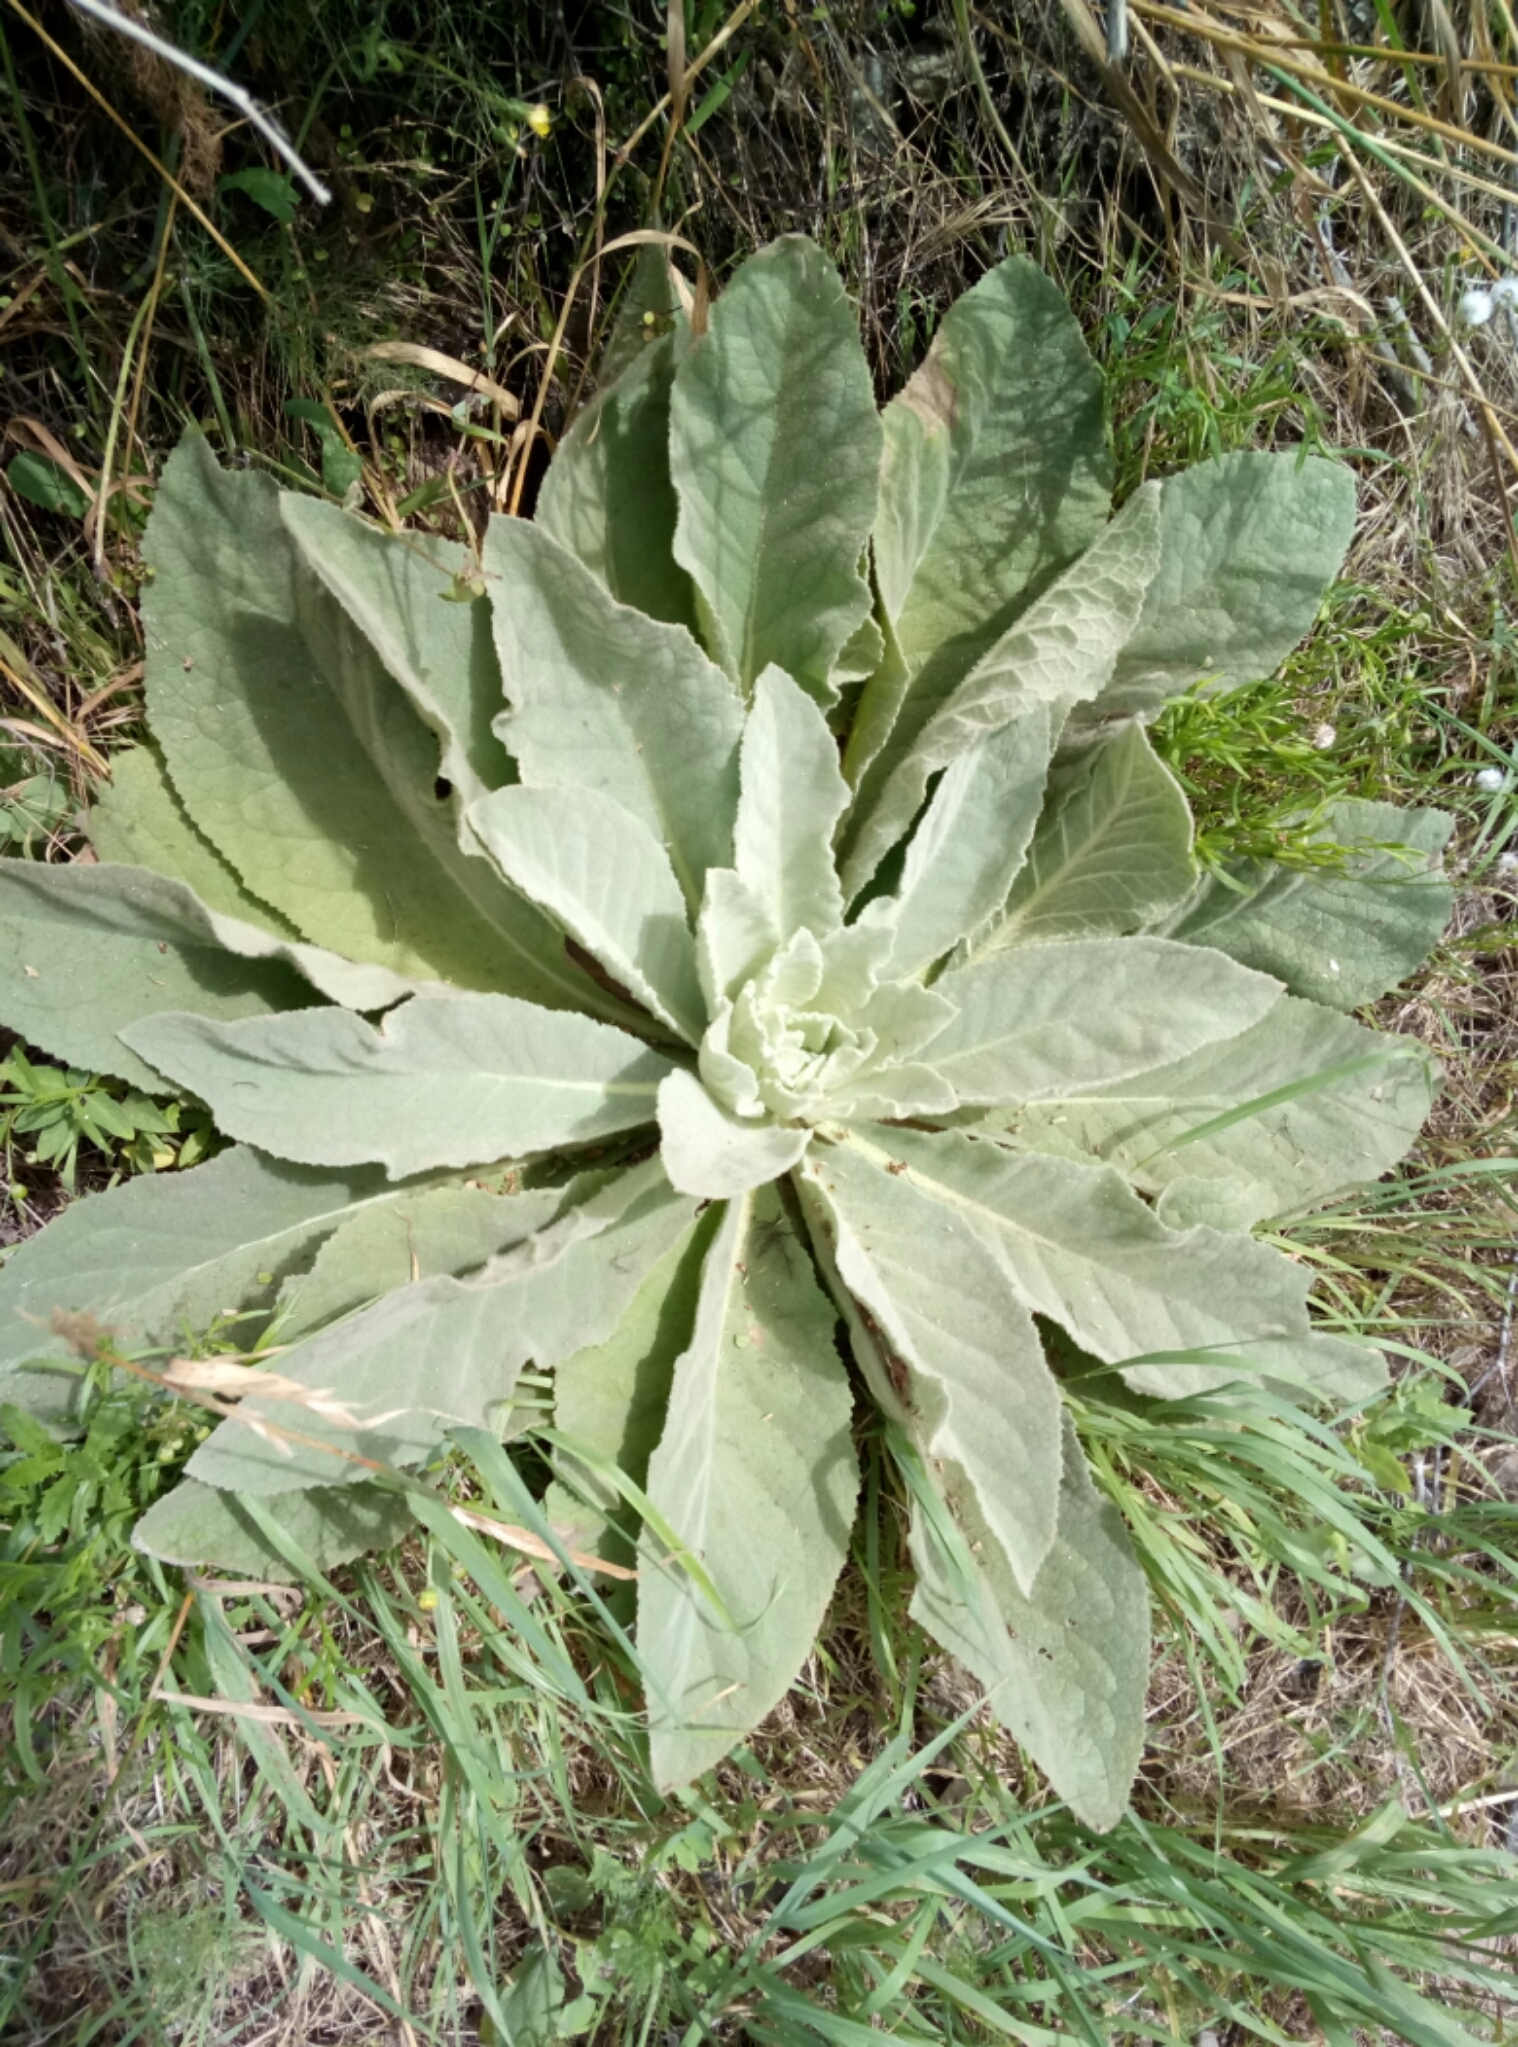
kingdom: Plantae
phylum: Tracheophyta
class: Magnoliopsida
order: Lamiales
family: Scrophulariaceae
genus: Verbascum
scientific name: Verbascum thapsus
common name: Common mullein
